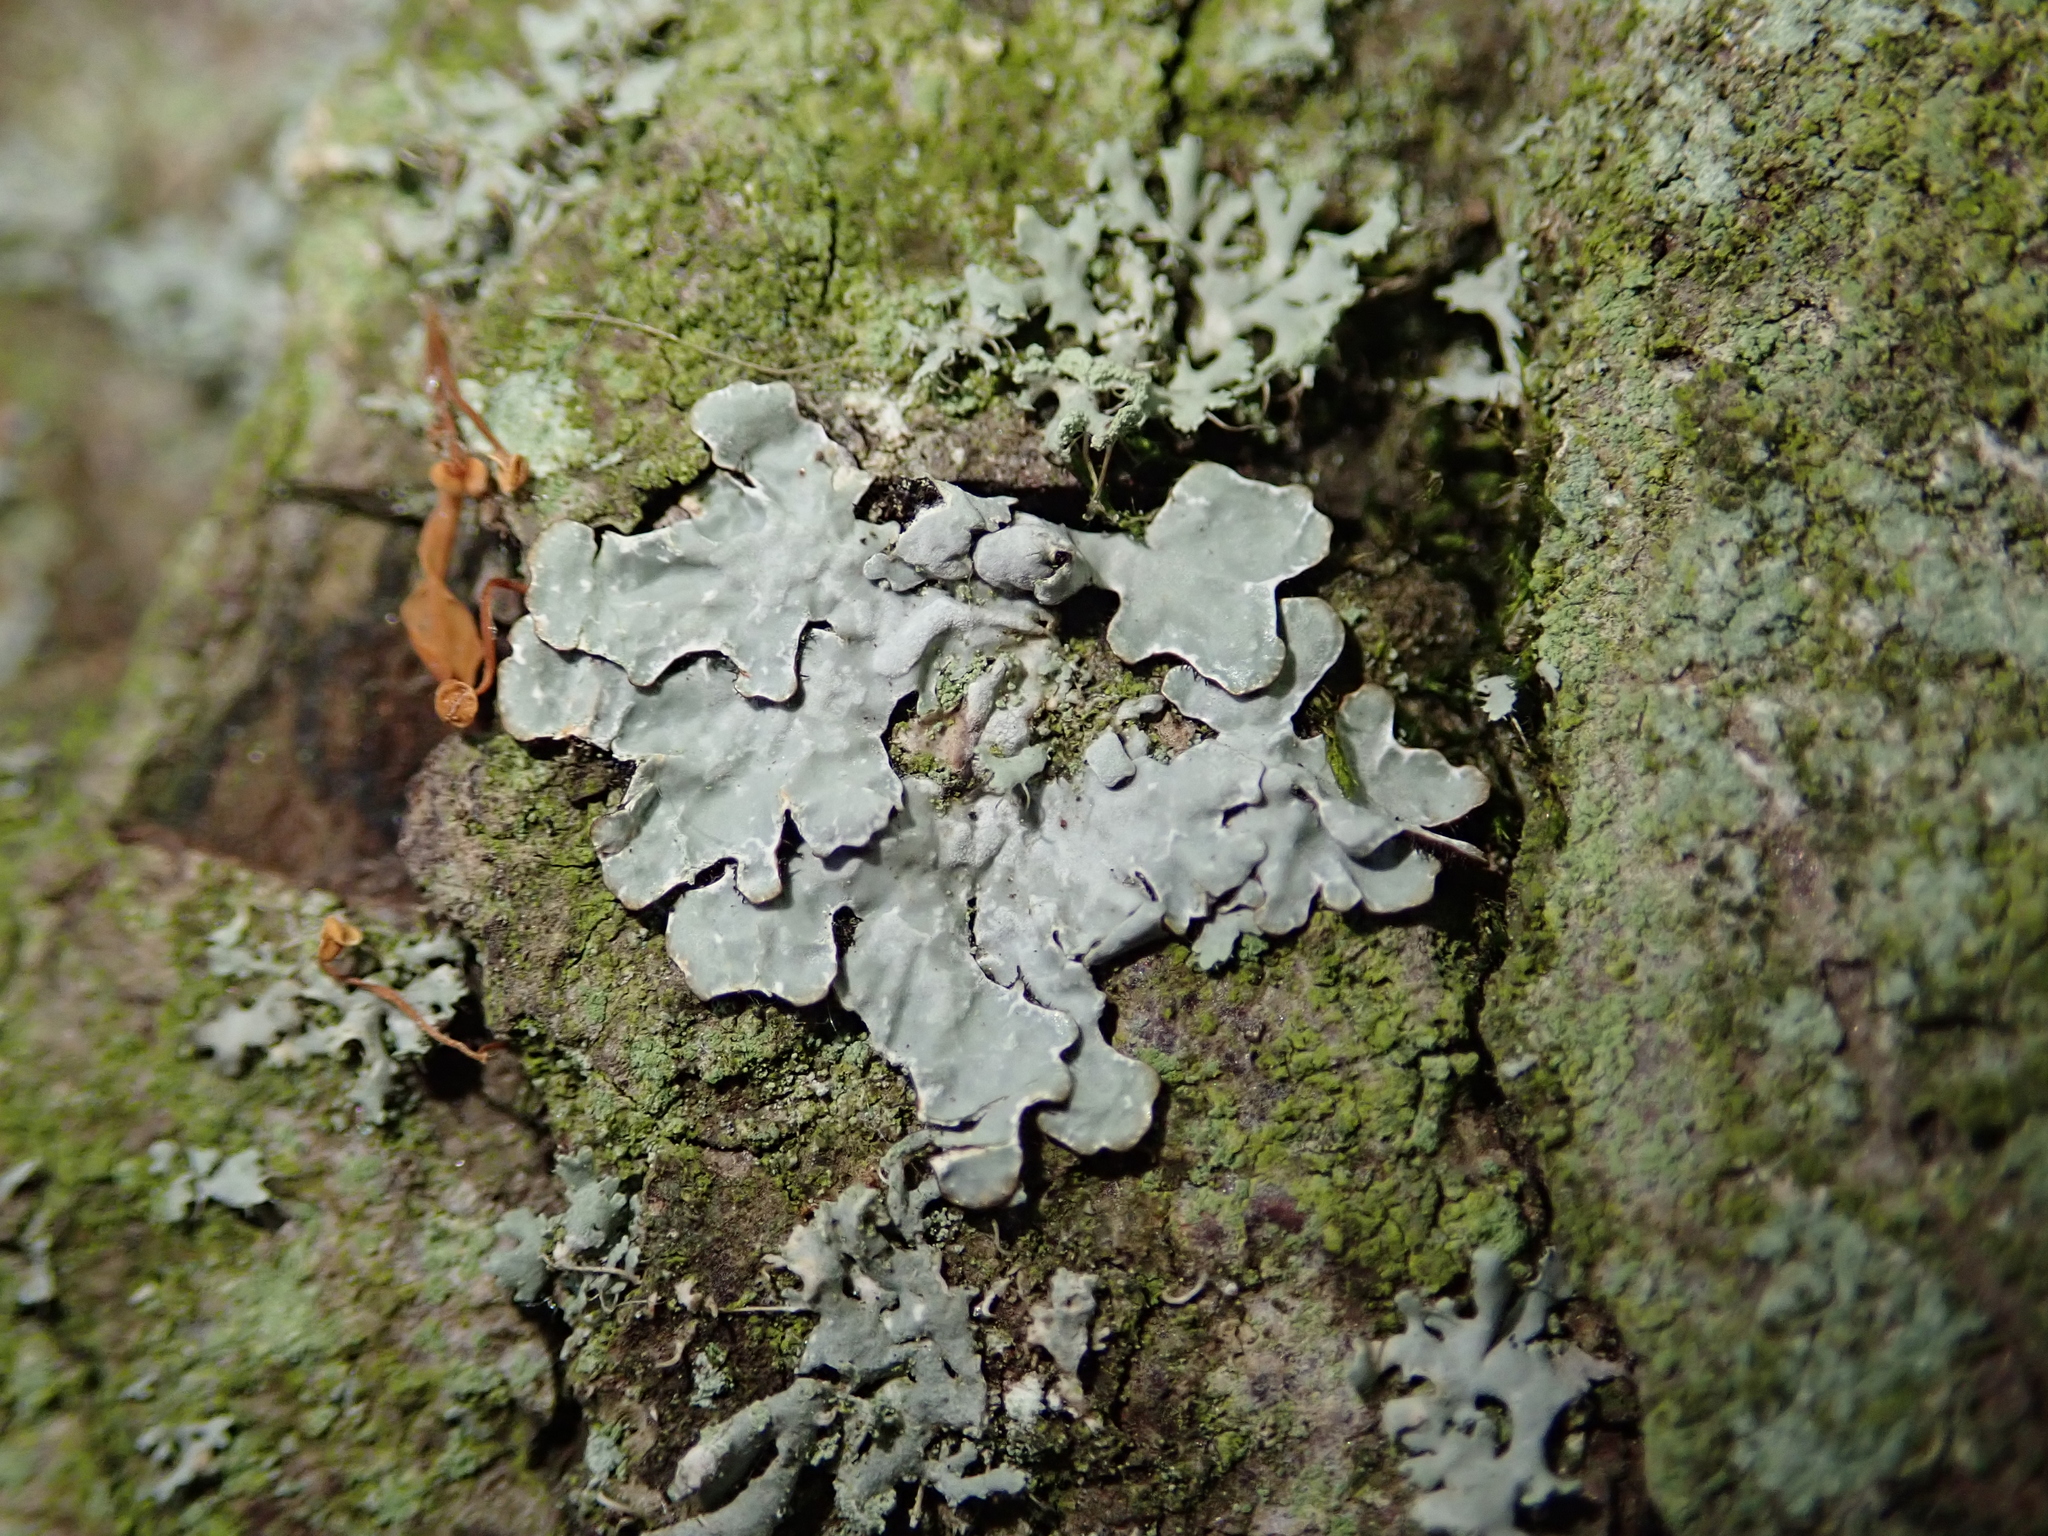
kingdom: Fungi
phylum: Ascomycota
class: Lecanoromycetes
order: Lecanorales
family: Parmeliaceae
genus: Parmelia
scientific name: Parmelia sulcata
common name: Netted shield lichen
